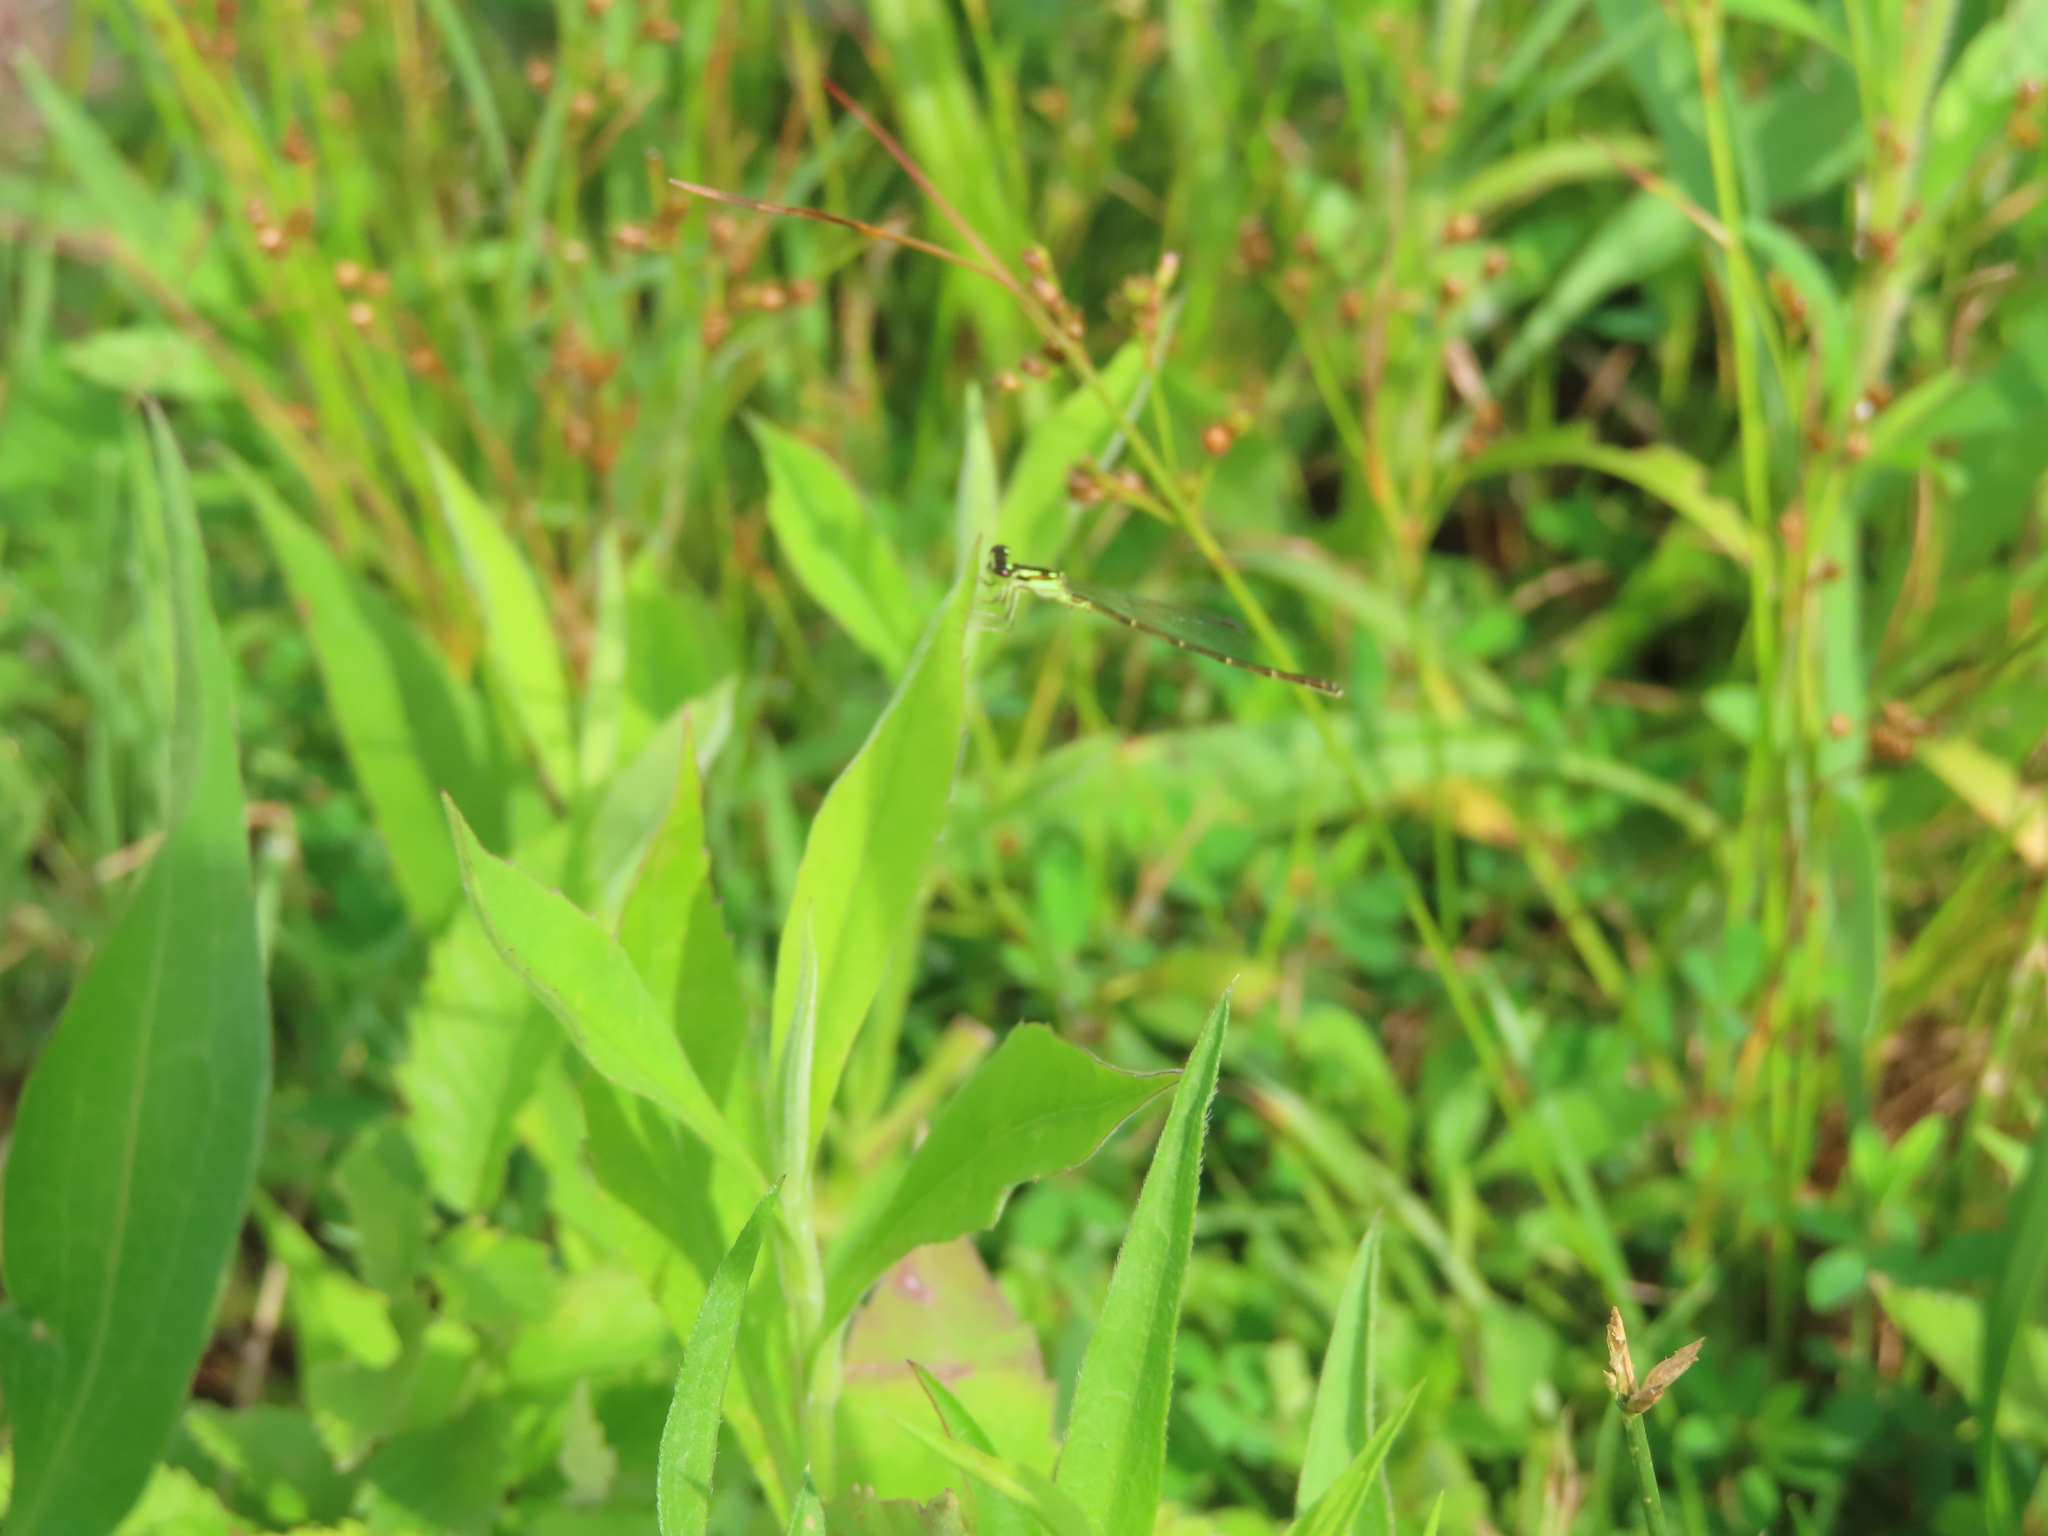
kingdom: Animalia
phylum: Arthropoda
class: Insecta
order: Odonata
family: Coenagrionidae
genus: Ischnura
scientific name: Ischnura posita
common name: Fragile forktail
